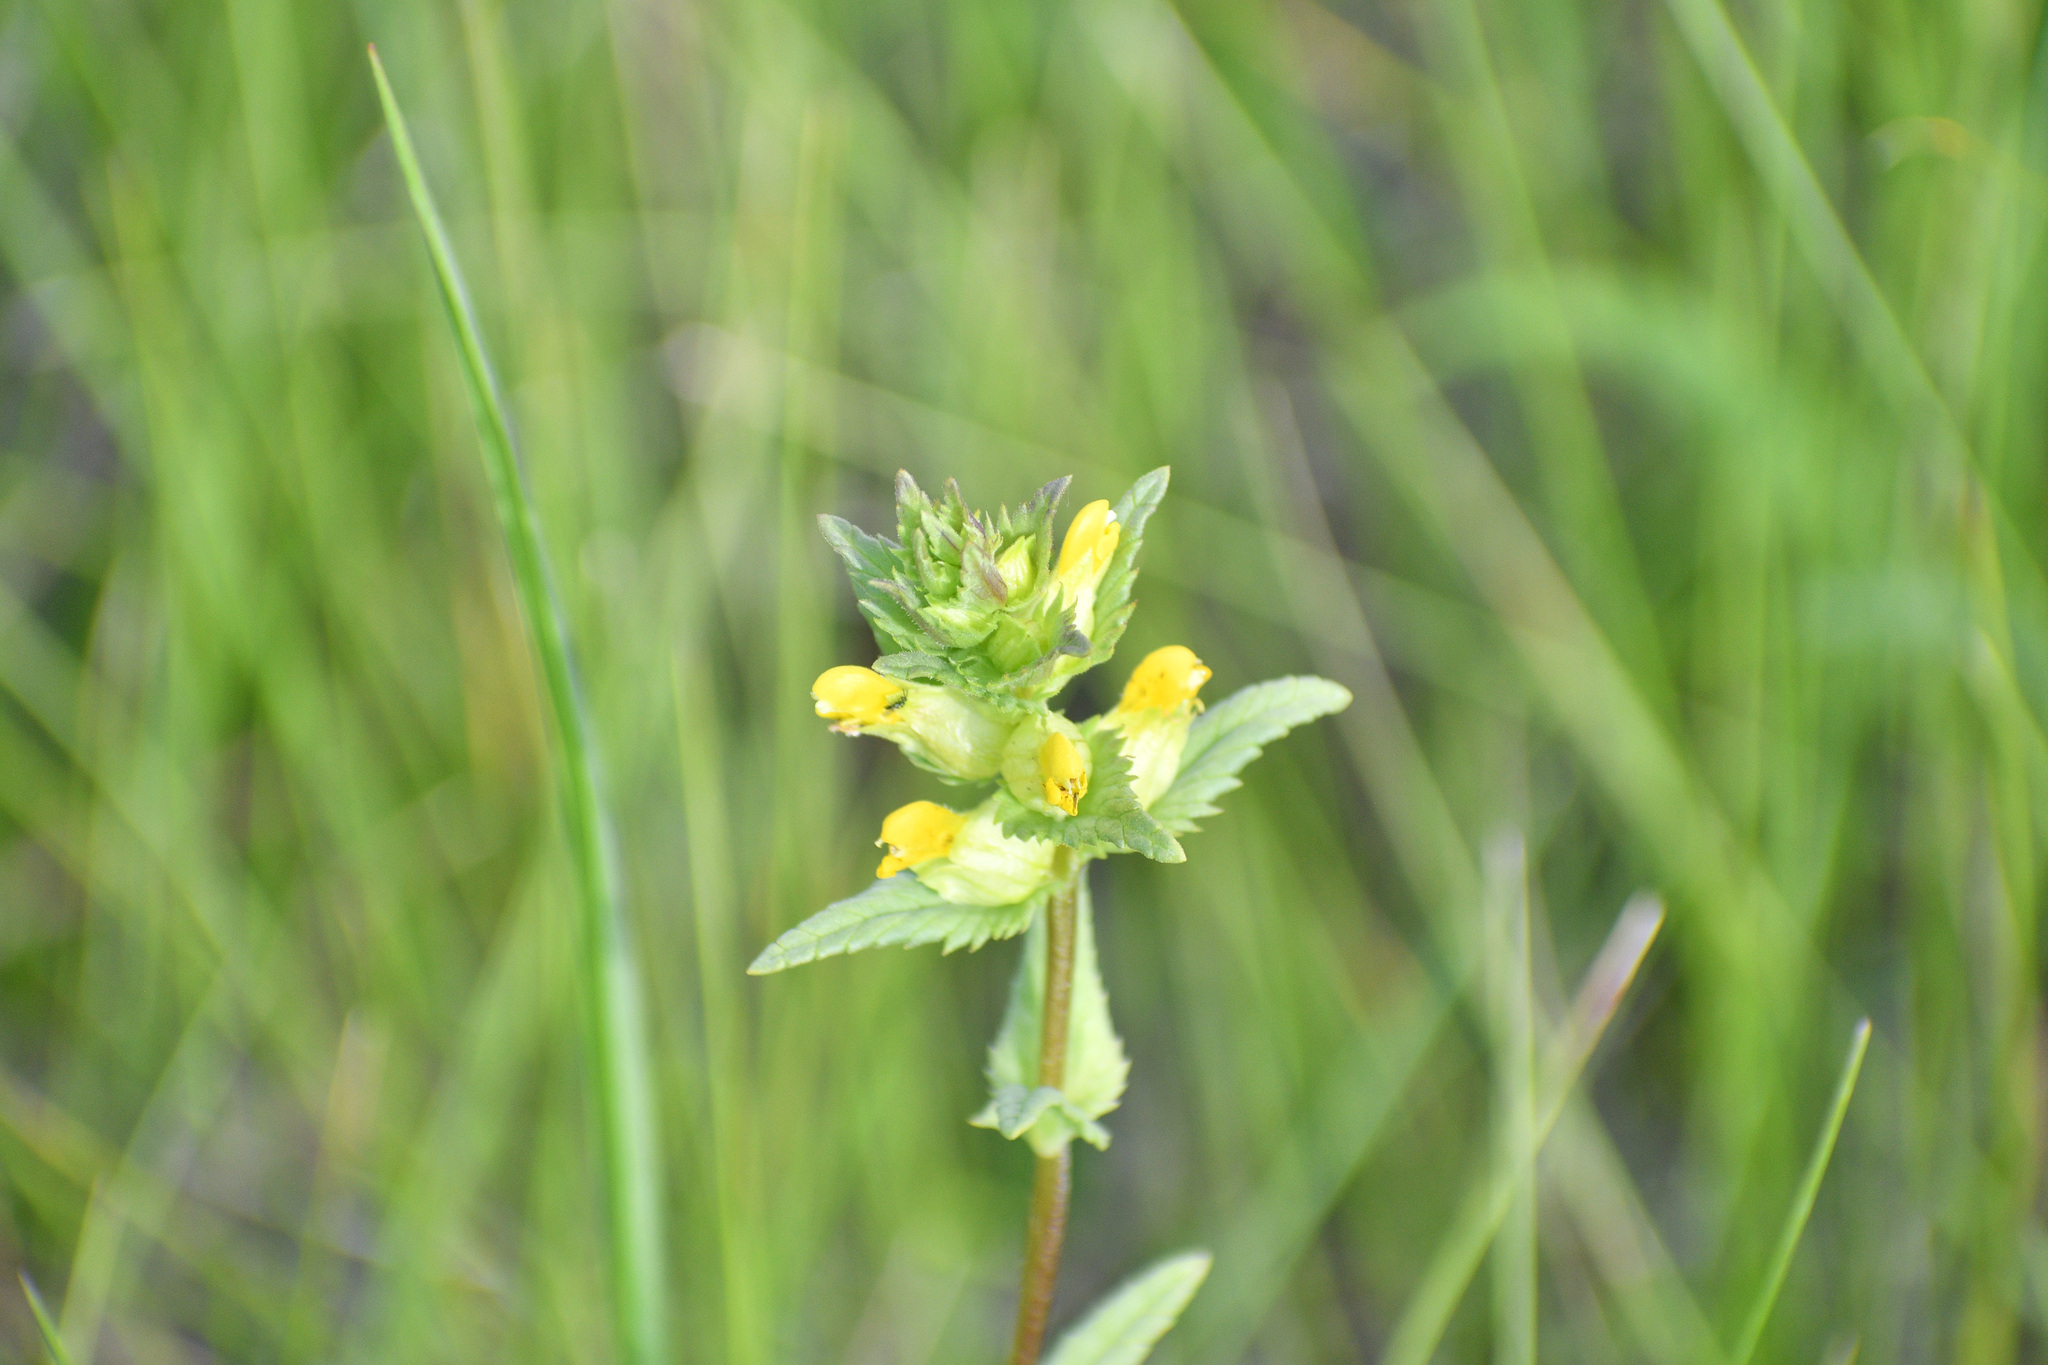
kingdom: Plantae
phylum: Tracheophyta
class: Magnoliopsida
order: Lamiales
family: Orobanchaceae
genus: Rhinanthus
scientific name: Rhinanthus groenlandicus
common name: Little yellow rattle
